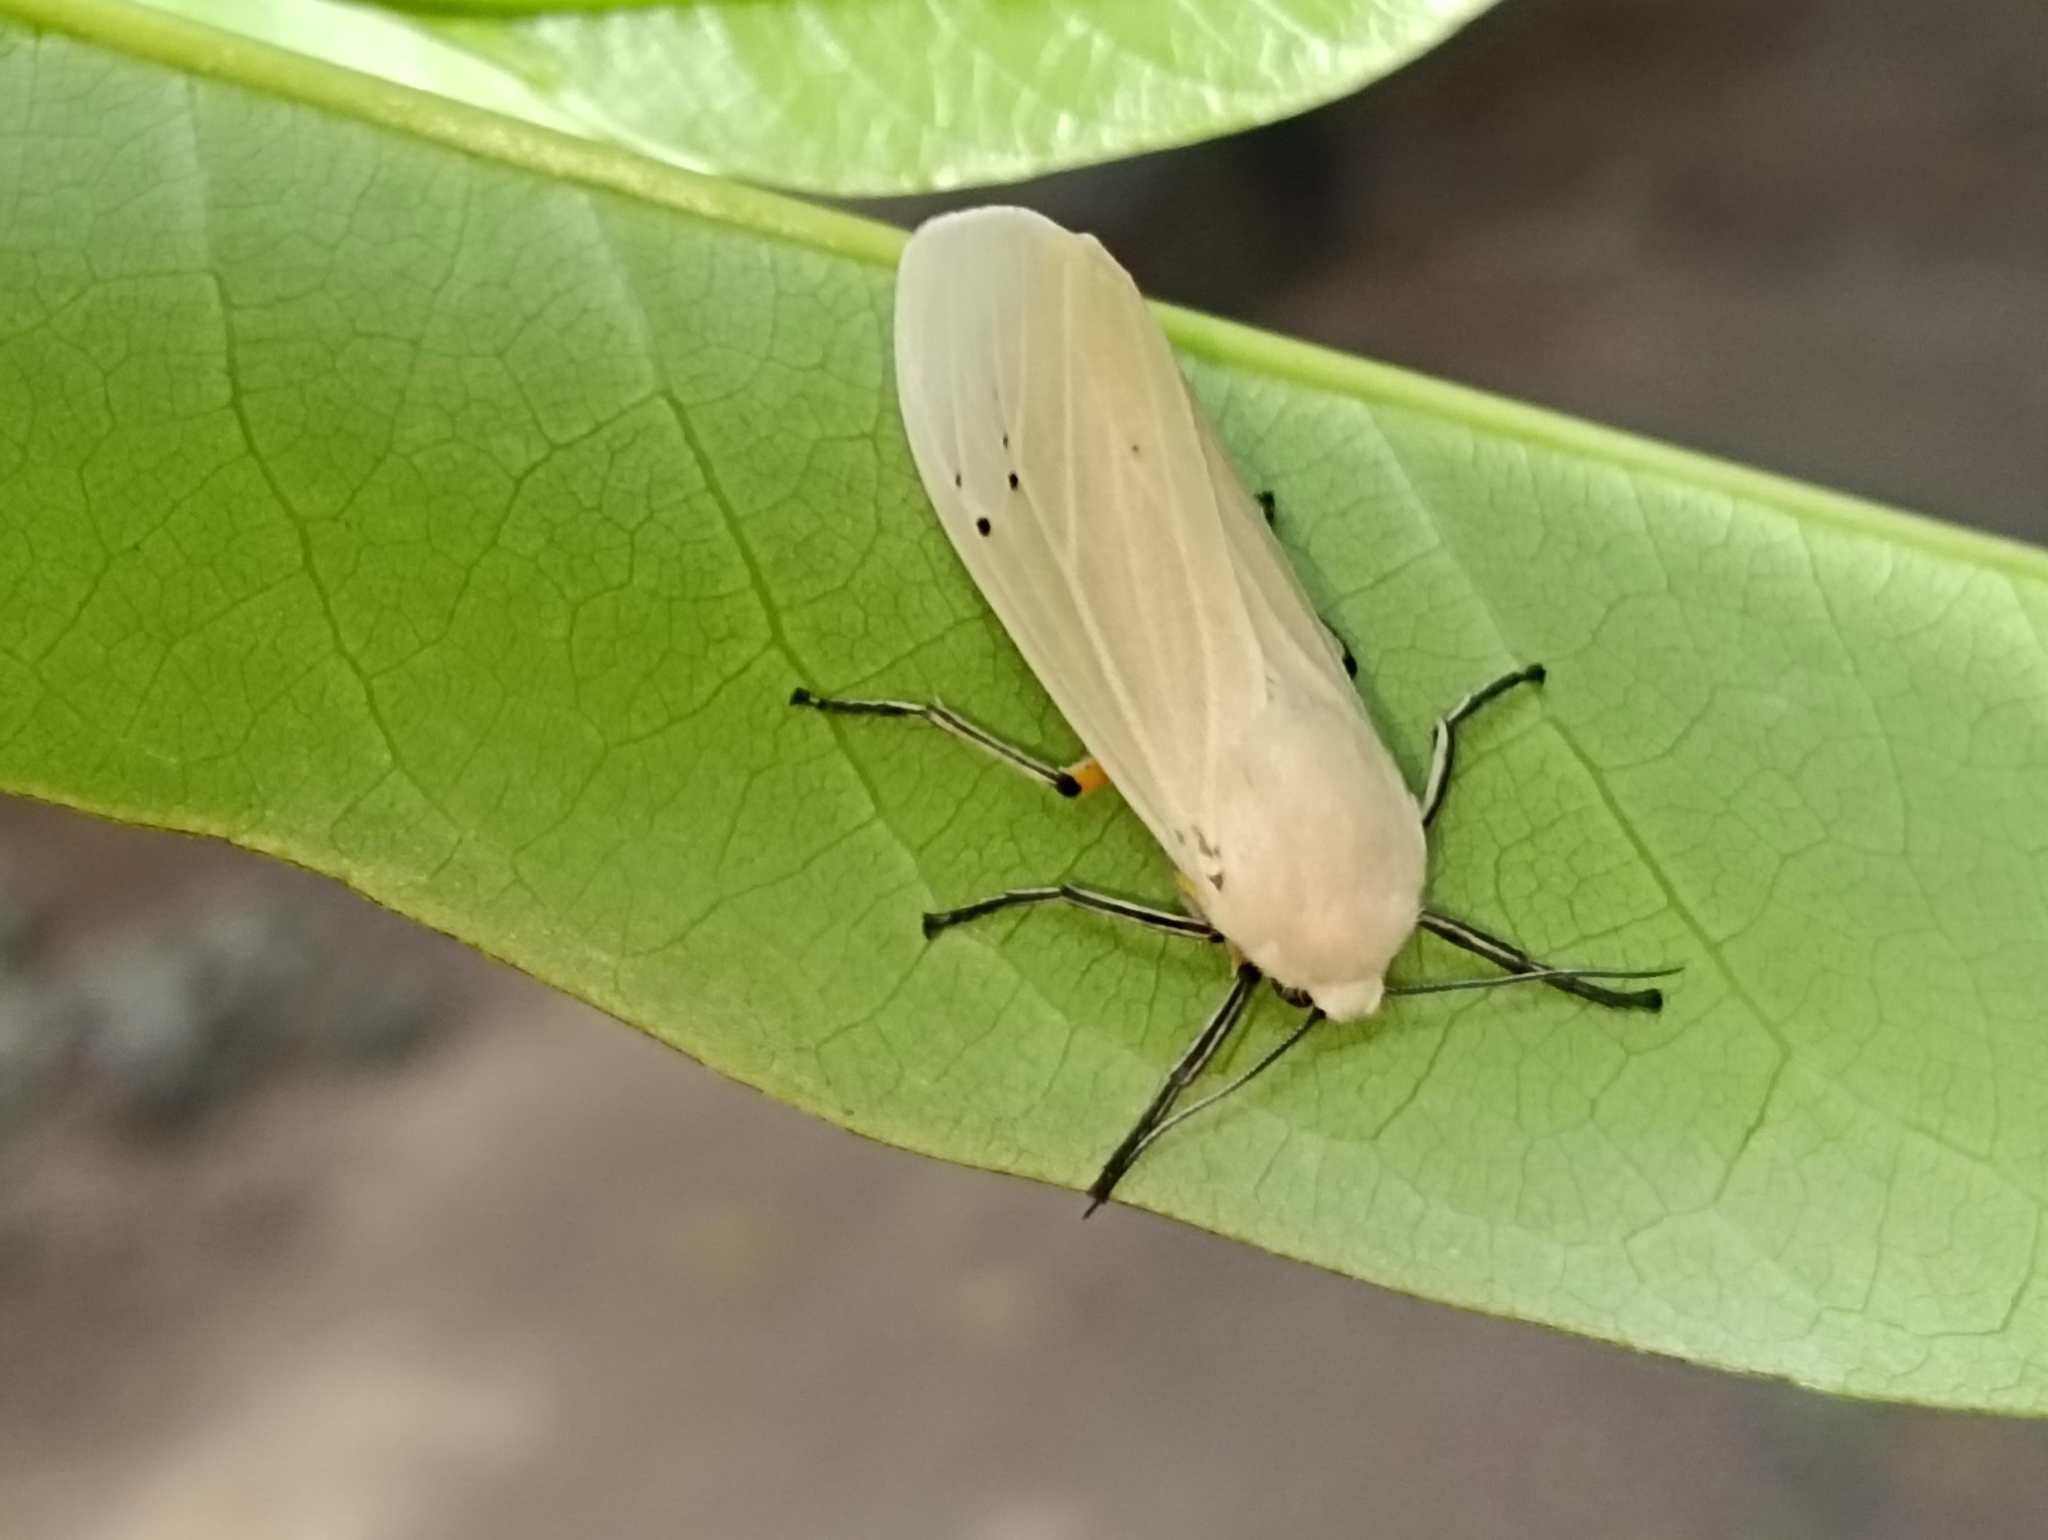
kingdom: Animalia
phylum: Arthropoda
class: Insecta
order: Lepidoptera
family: Erebidae
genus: Creatonotos
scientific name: Creatonotos transiens
